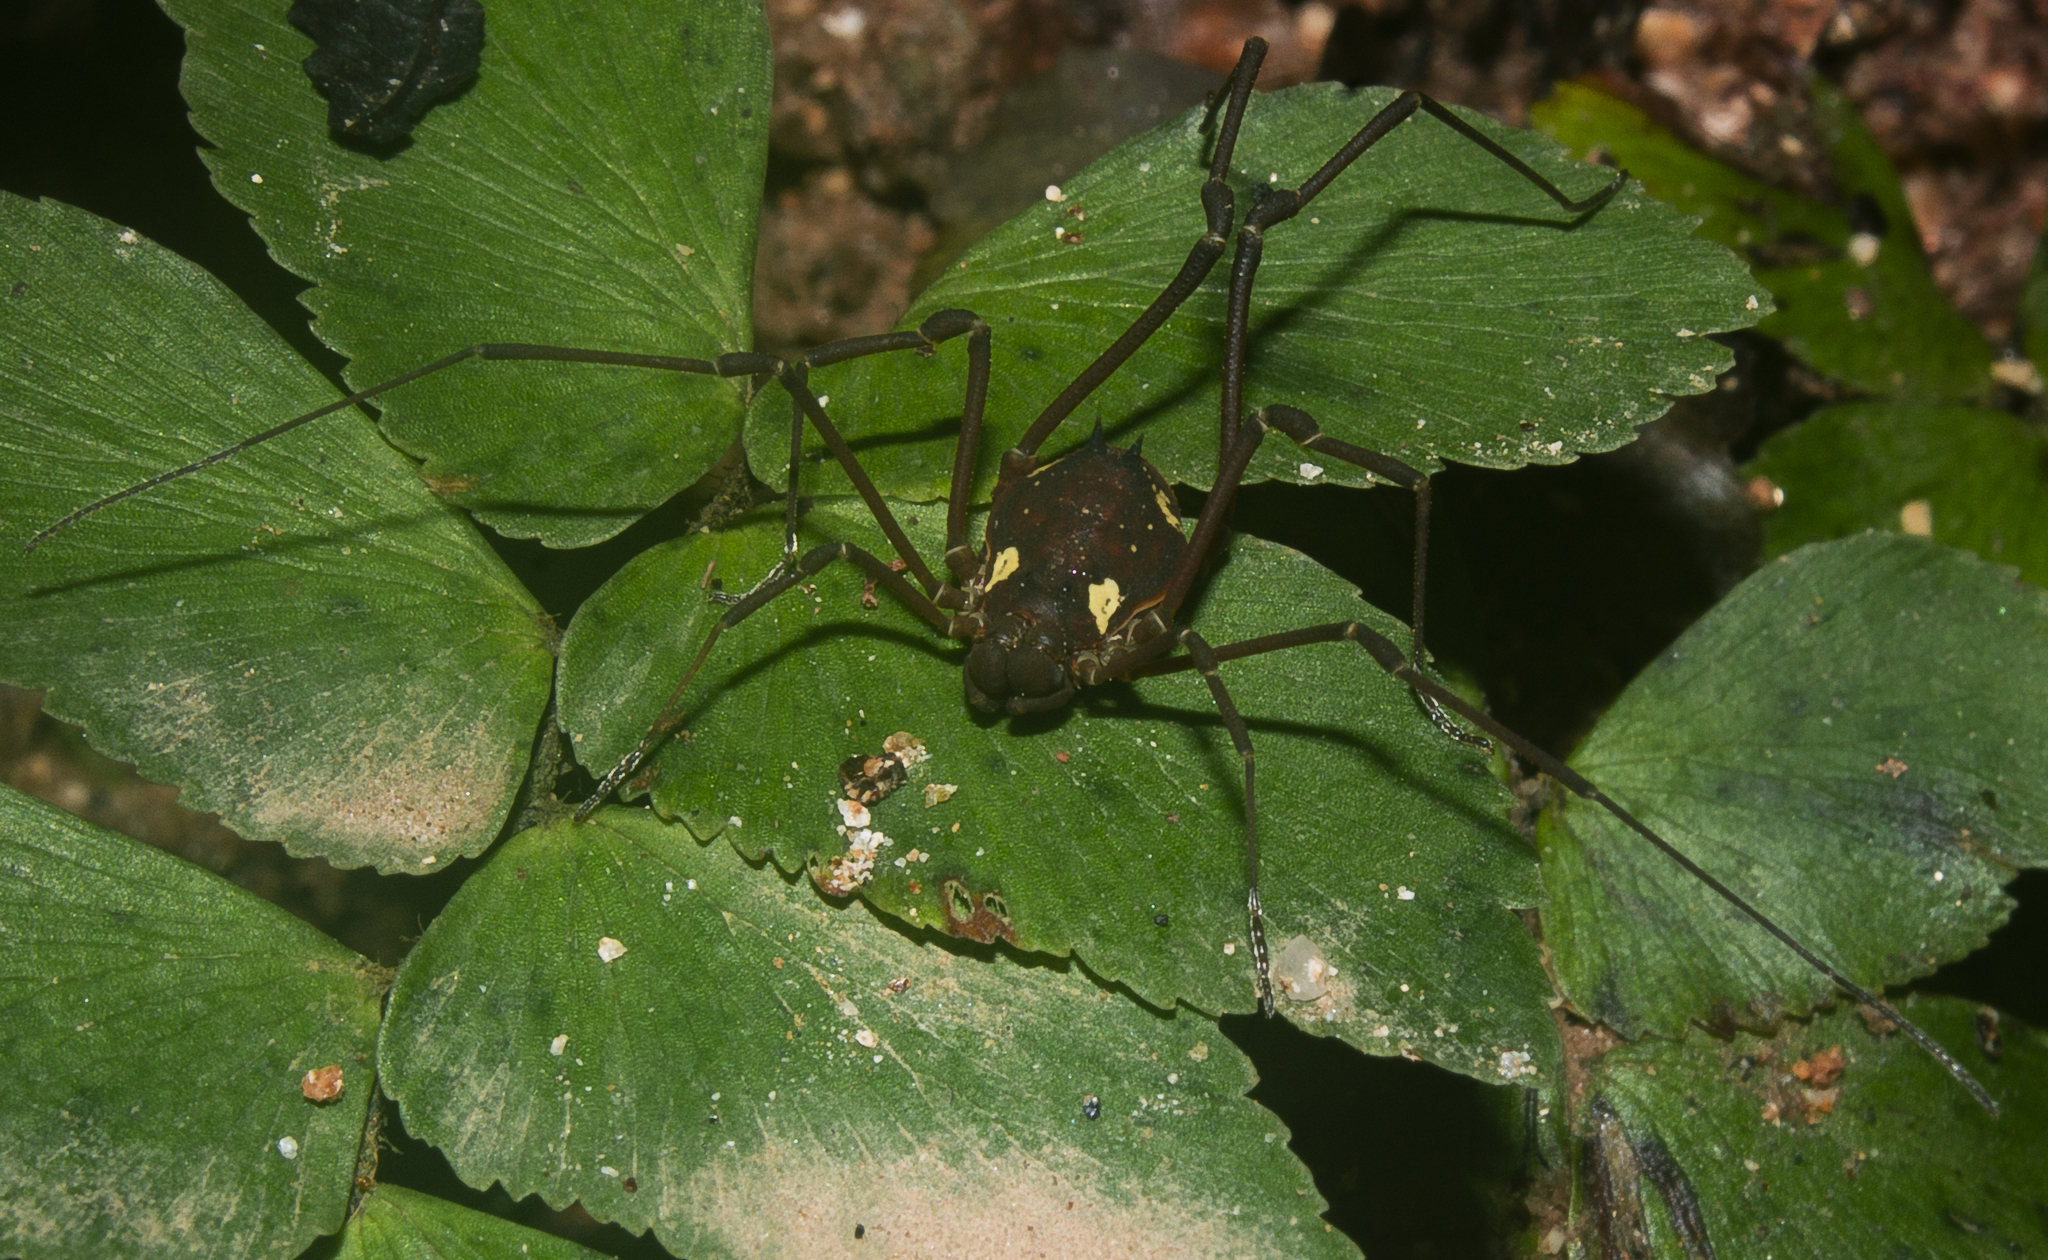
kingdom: Animalia
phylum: Arthropoda
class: Arachnida
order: Opiliones
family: Cosmetidae
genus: Eucynorta
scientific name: Eucynorta quadripustulata
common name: Harvestmen
